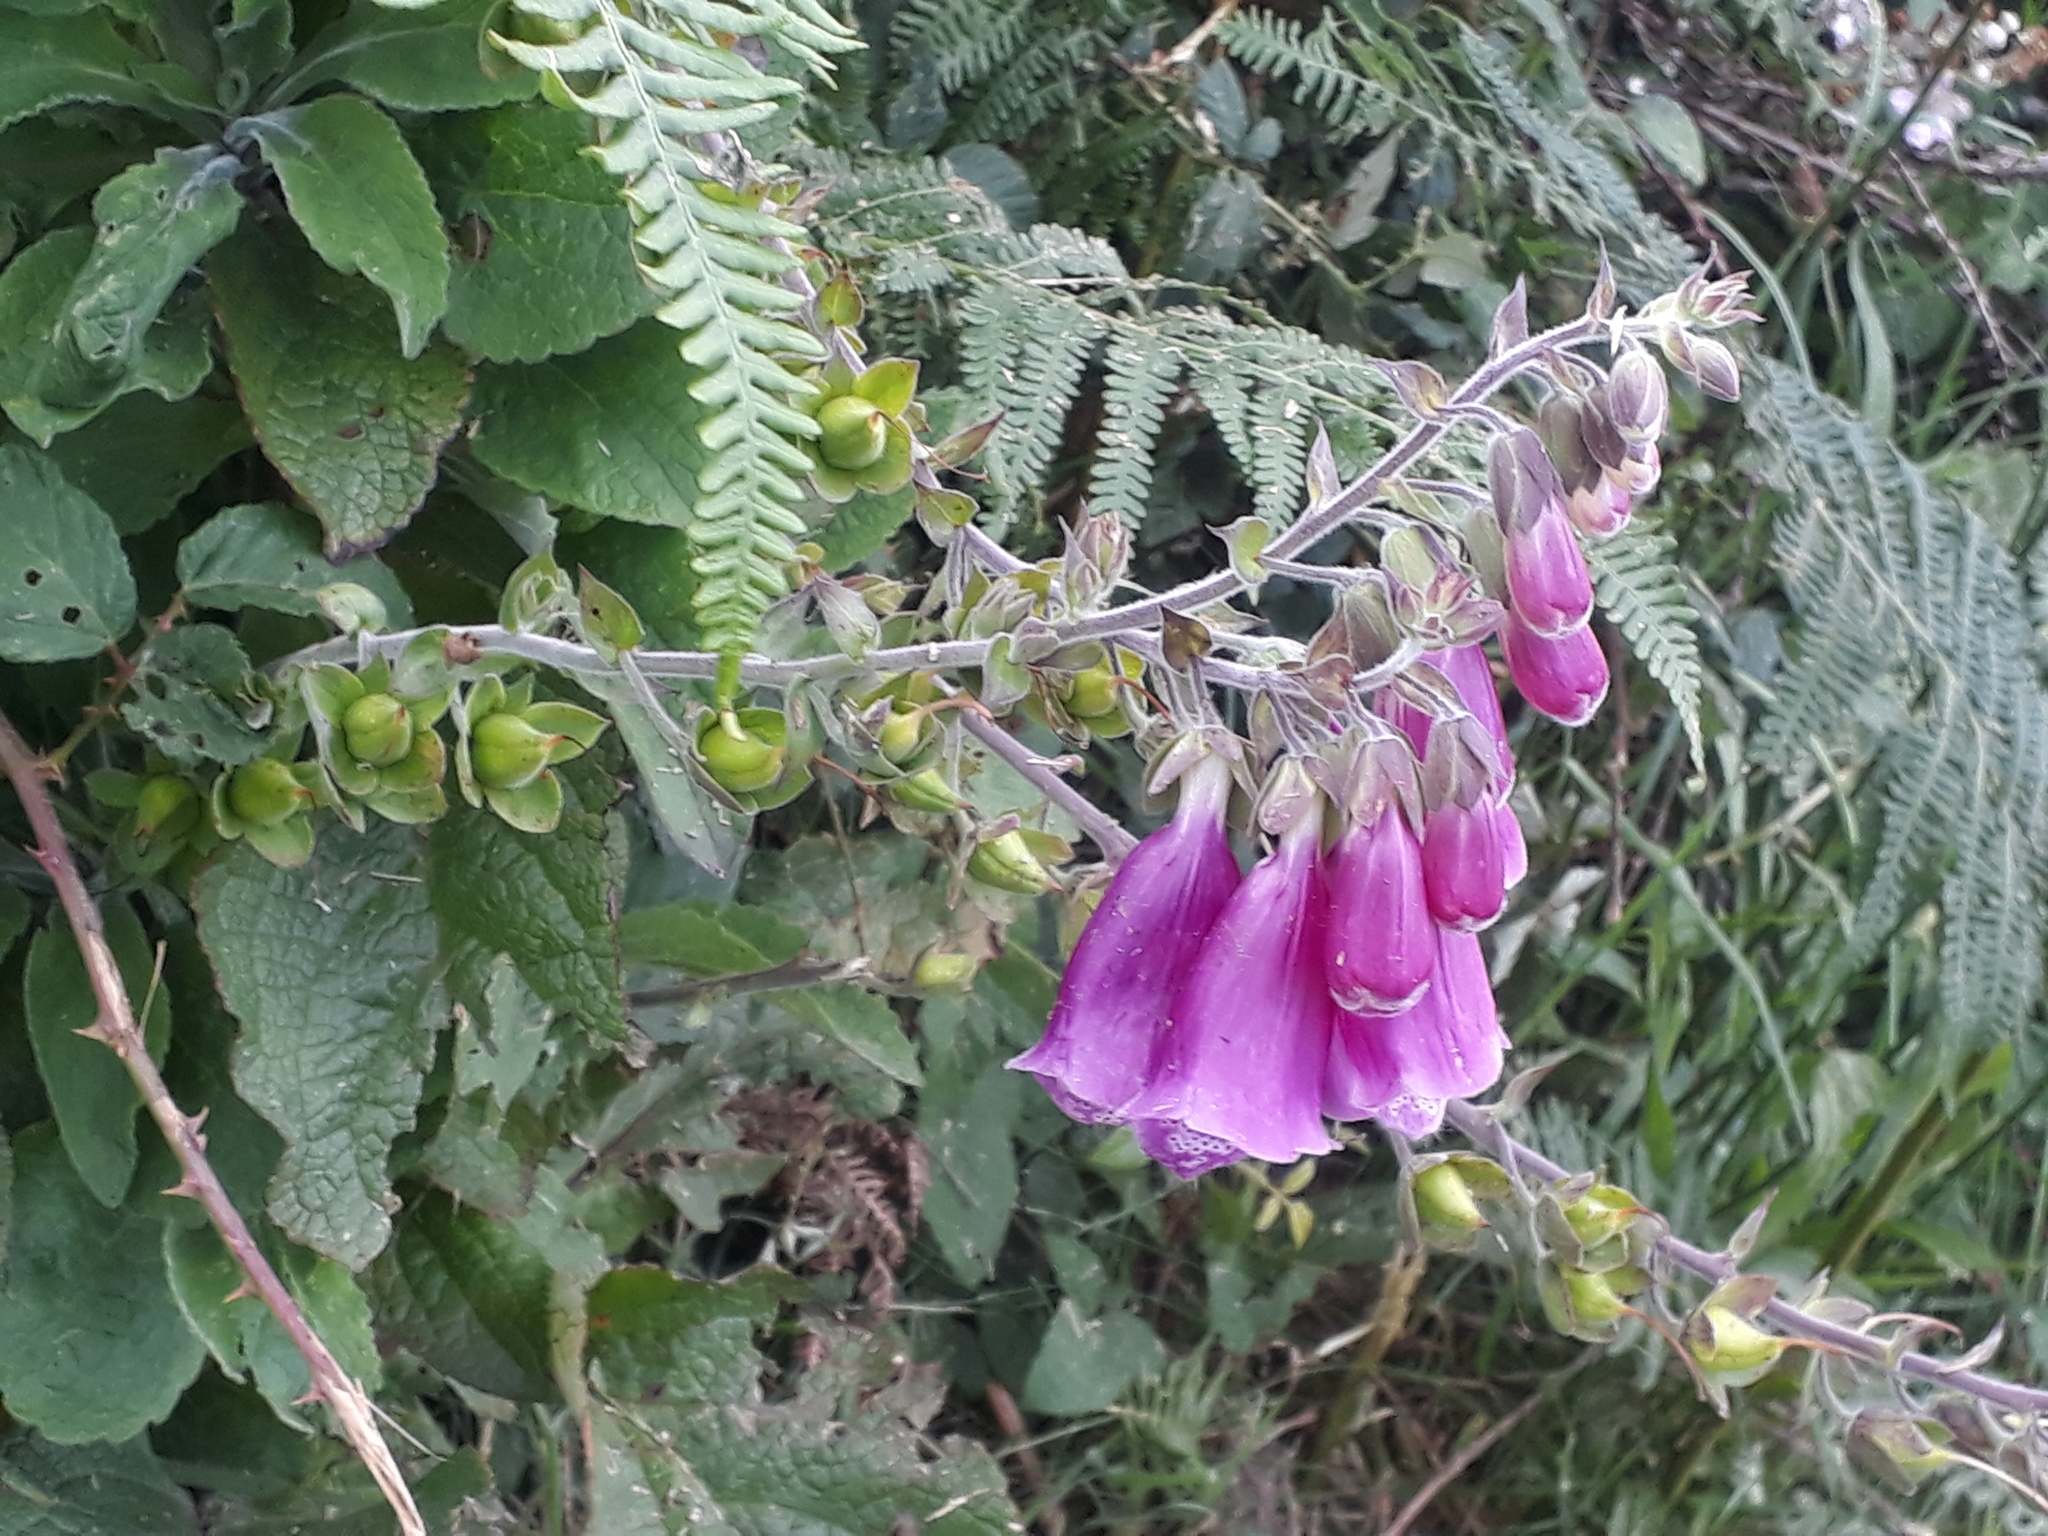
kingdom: Plantae
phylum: Tracheophyta
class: Magnoliopsida
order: Lamiales
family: Plantaginaceae
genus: Digitalis
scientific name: Digitalis purpurea
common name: Foxglove
